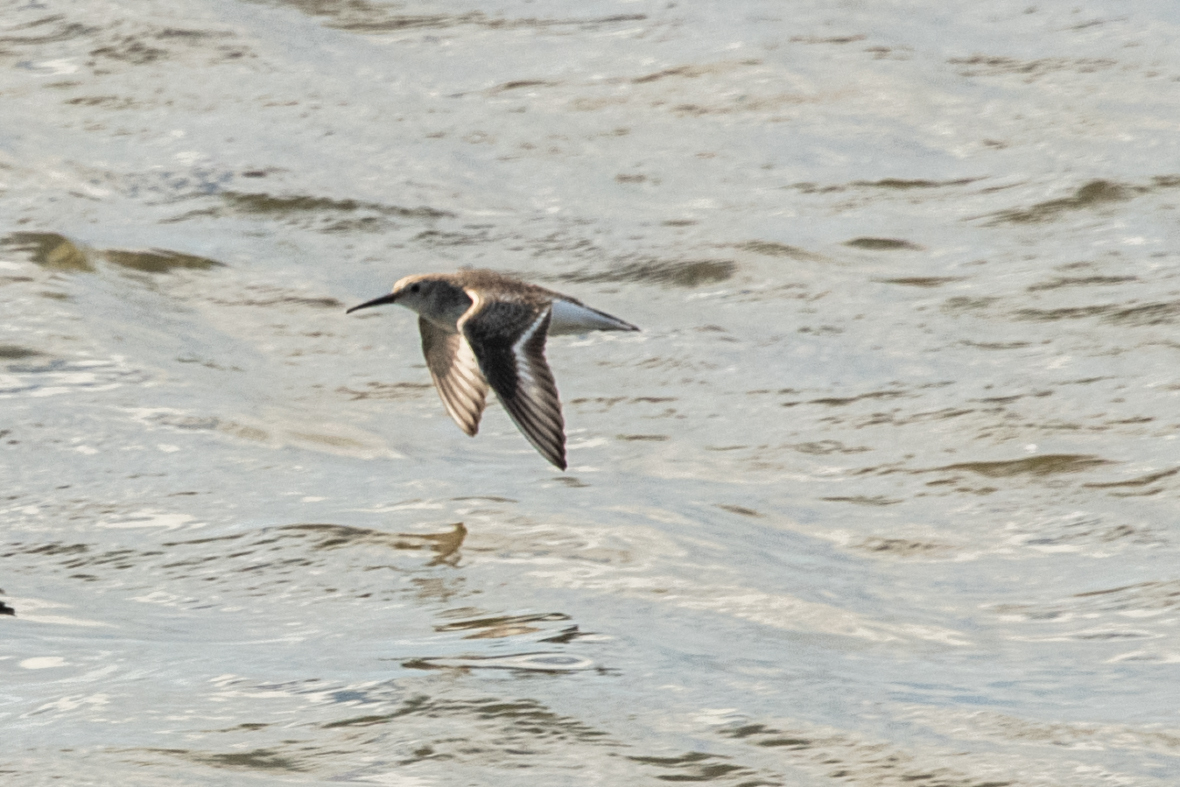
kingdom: Animalia
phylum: Chordata
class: Aves
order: Charadriiformes
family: Scolopacidae
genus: Calidris
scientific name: Calidris alpina
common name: Dunlin
